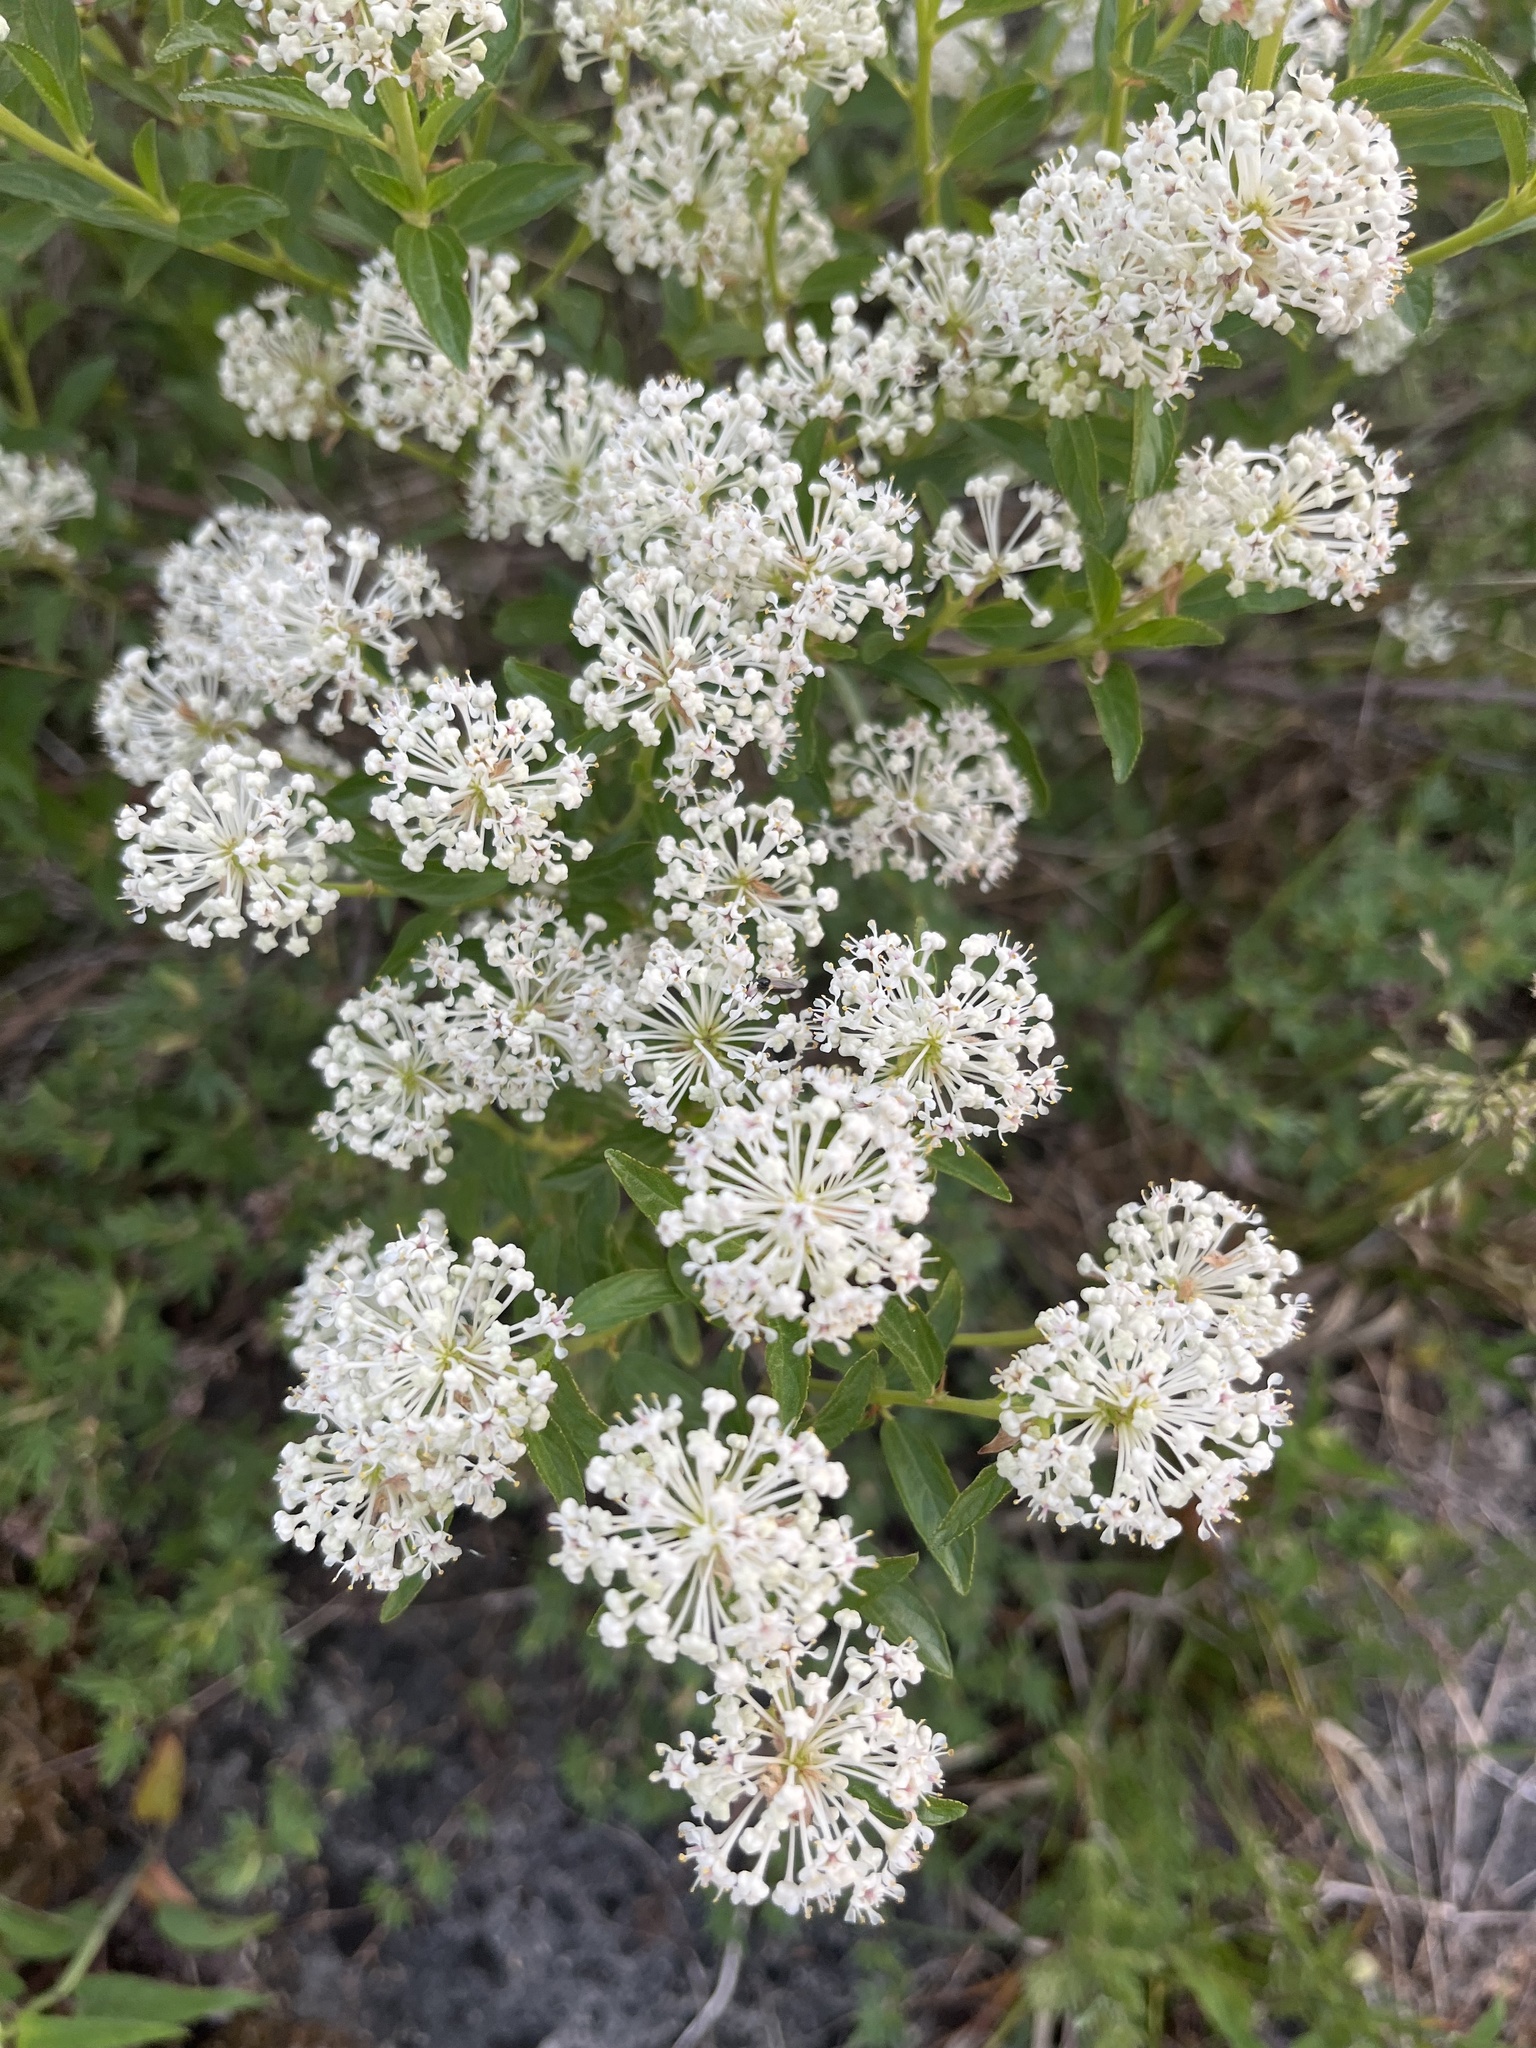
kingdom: Plantae
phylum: Tracheophyta
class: Magnoliopsida
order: Rosales
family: Rhamnaceae
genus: Ceanothus
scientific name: Ceanothus herbaceus
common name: Inland ceanothus
